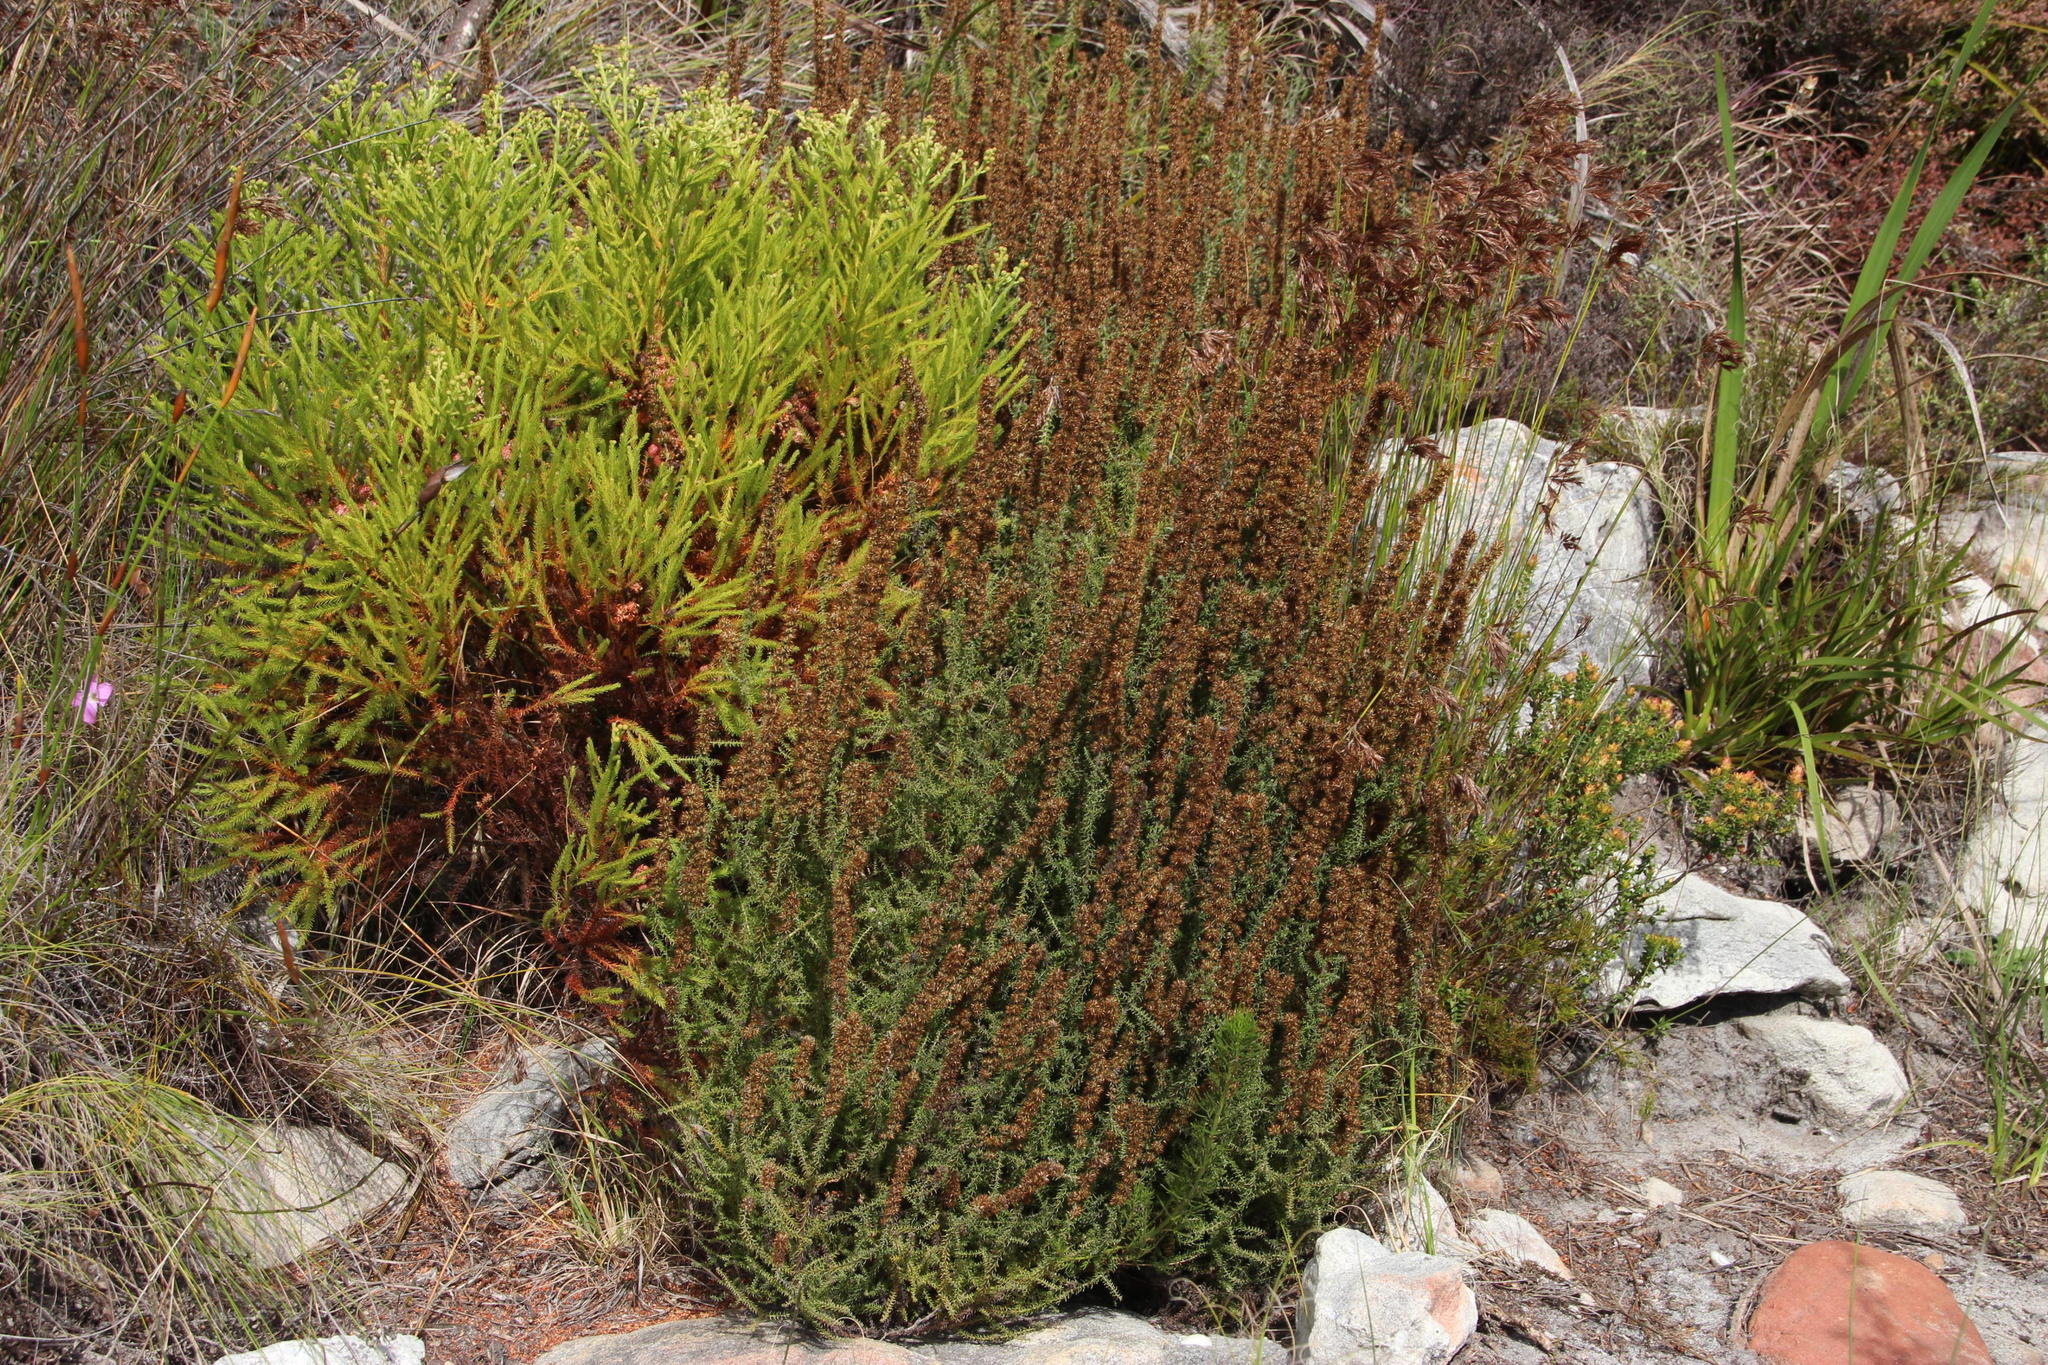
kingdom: Plantae
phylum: Tracheophyta
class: Magnoliopsida
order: Asterales
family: Asteraceae
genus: Seriphium
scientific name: Seriphium cinereum
